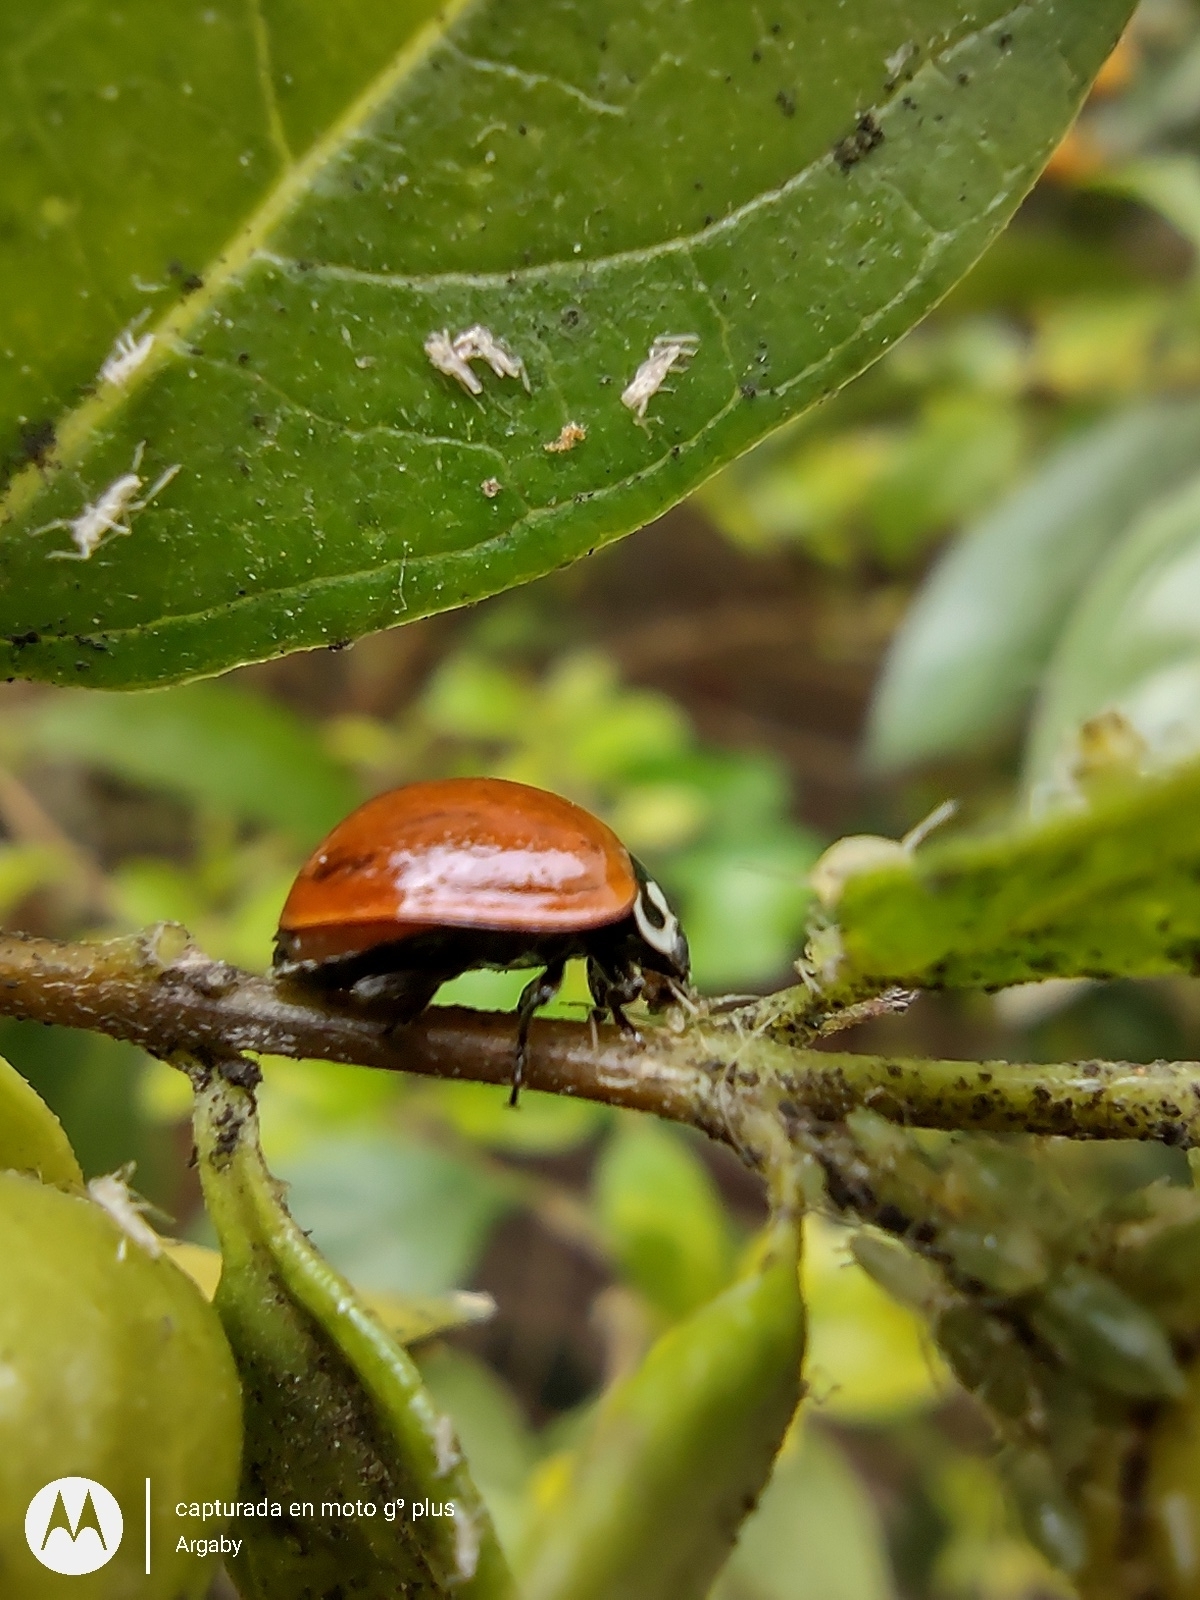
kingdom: Animalia
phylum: Arthropoda
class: Insecta
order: Coleoptera
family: Coccinellidae
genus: Cycloneda
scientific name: Cycloneda sanguinea
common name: Ladybird beetle
